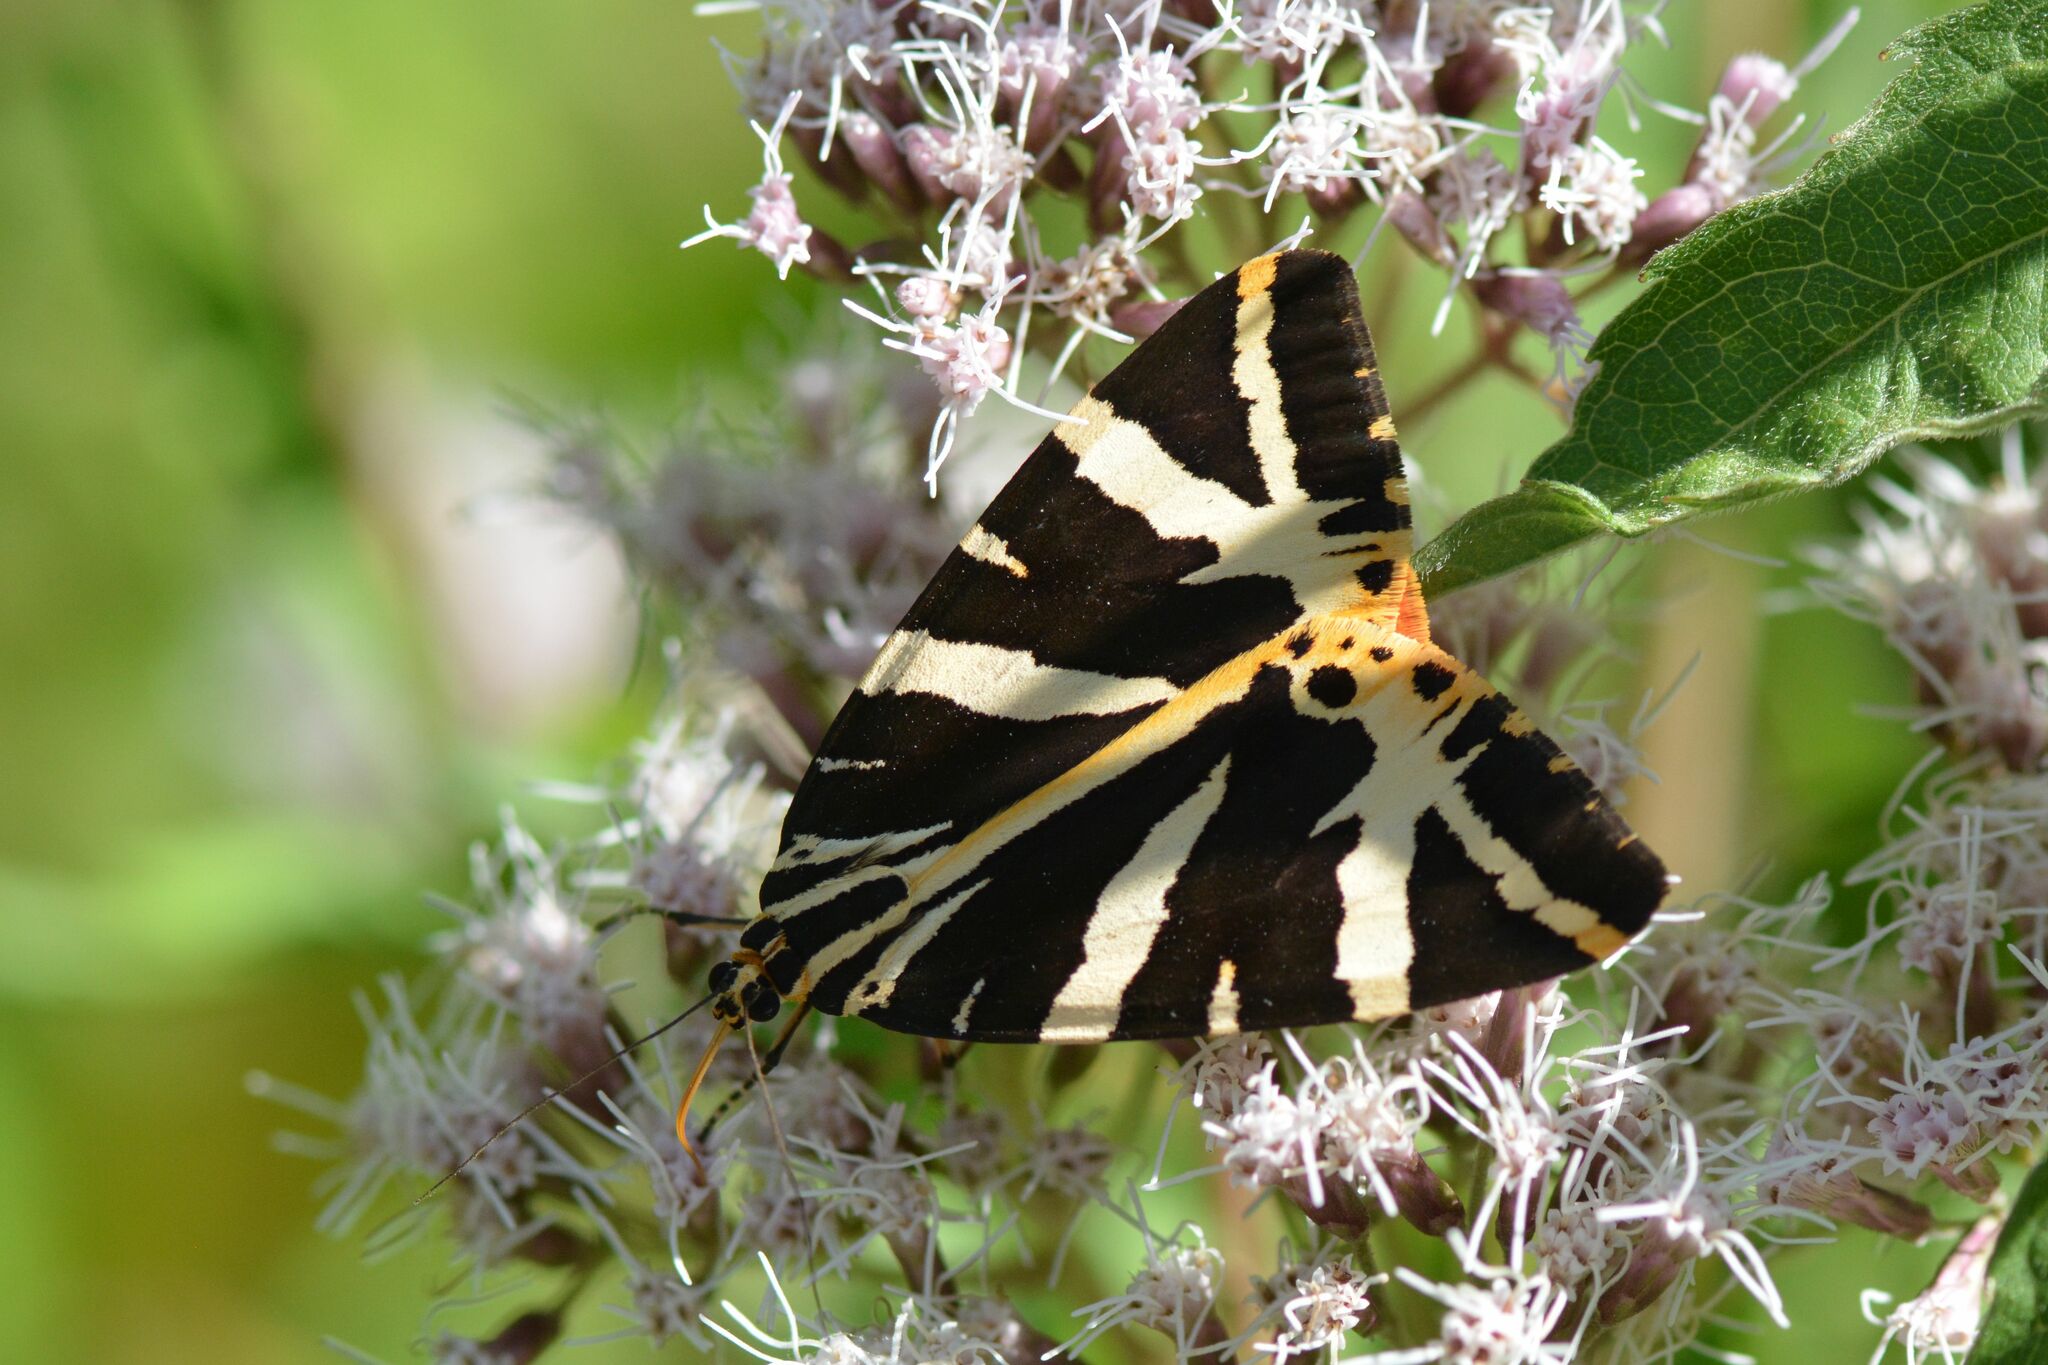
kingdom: Animalia
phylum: Arthropoda
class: Insecta
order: Lepidoptera
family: Erebidae
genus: Euplagia
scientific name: Euplagia quadripunctaria
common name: Jersey tiger
